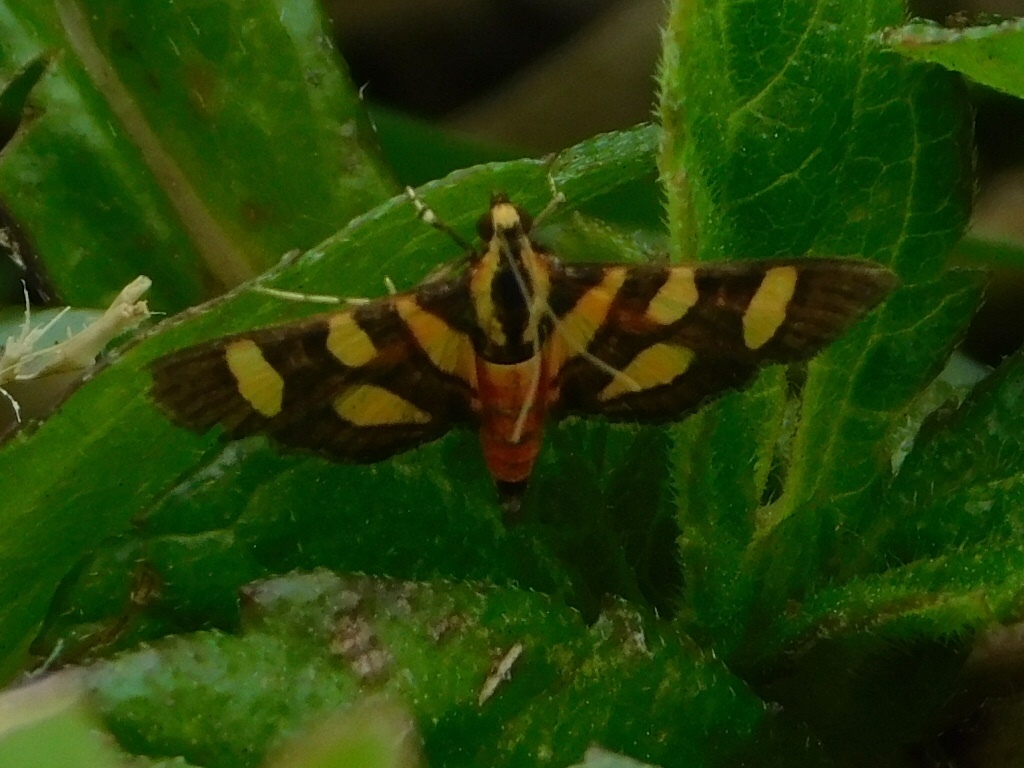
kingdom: Animalia
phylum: Arthropoda
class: Insecta
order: Lepidoptera
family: Crambidae
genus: Syngamia
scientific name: Syngamia florella
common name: Orange-spotted flower moth
